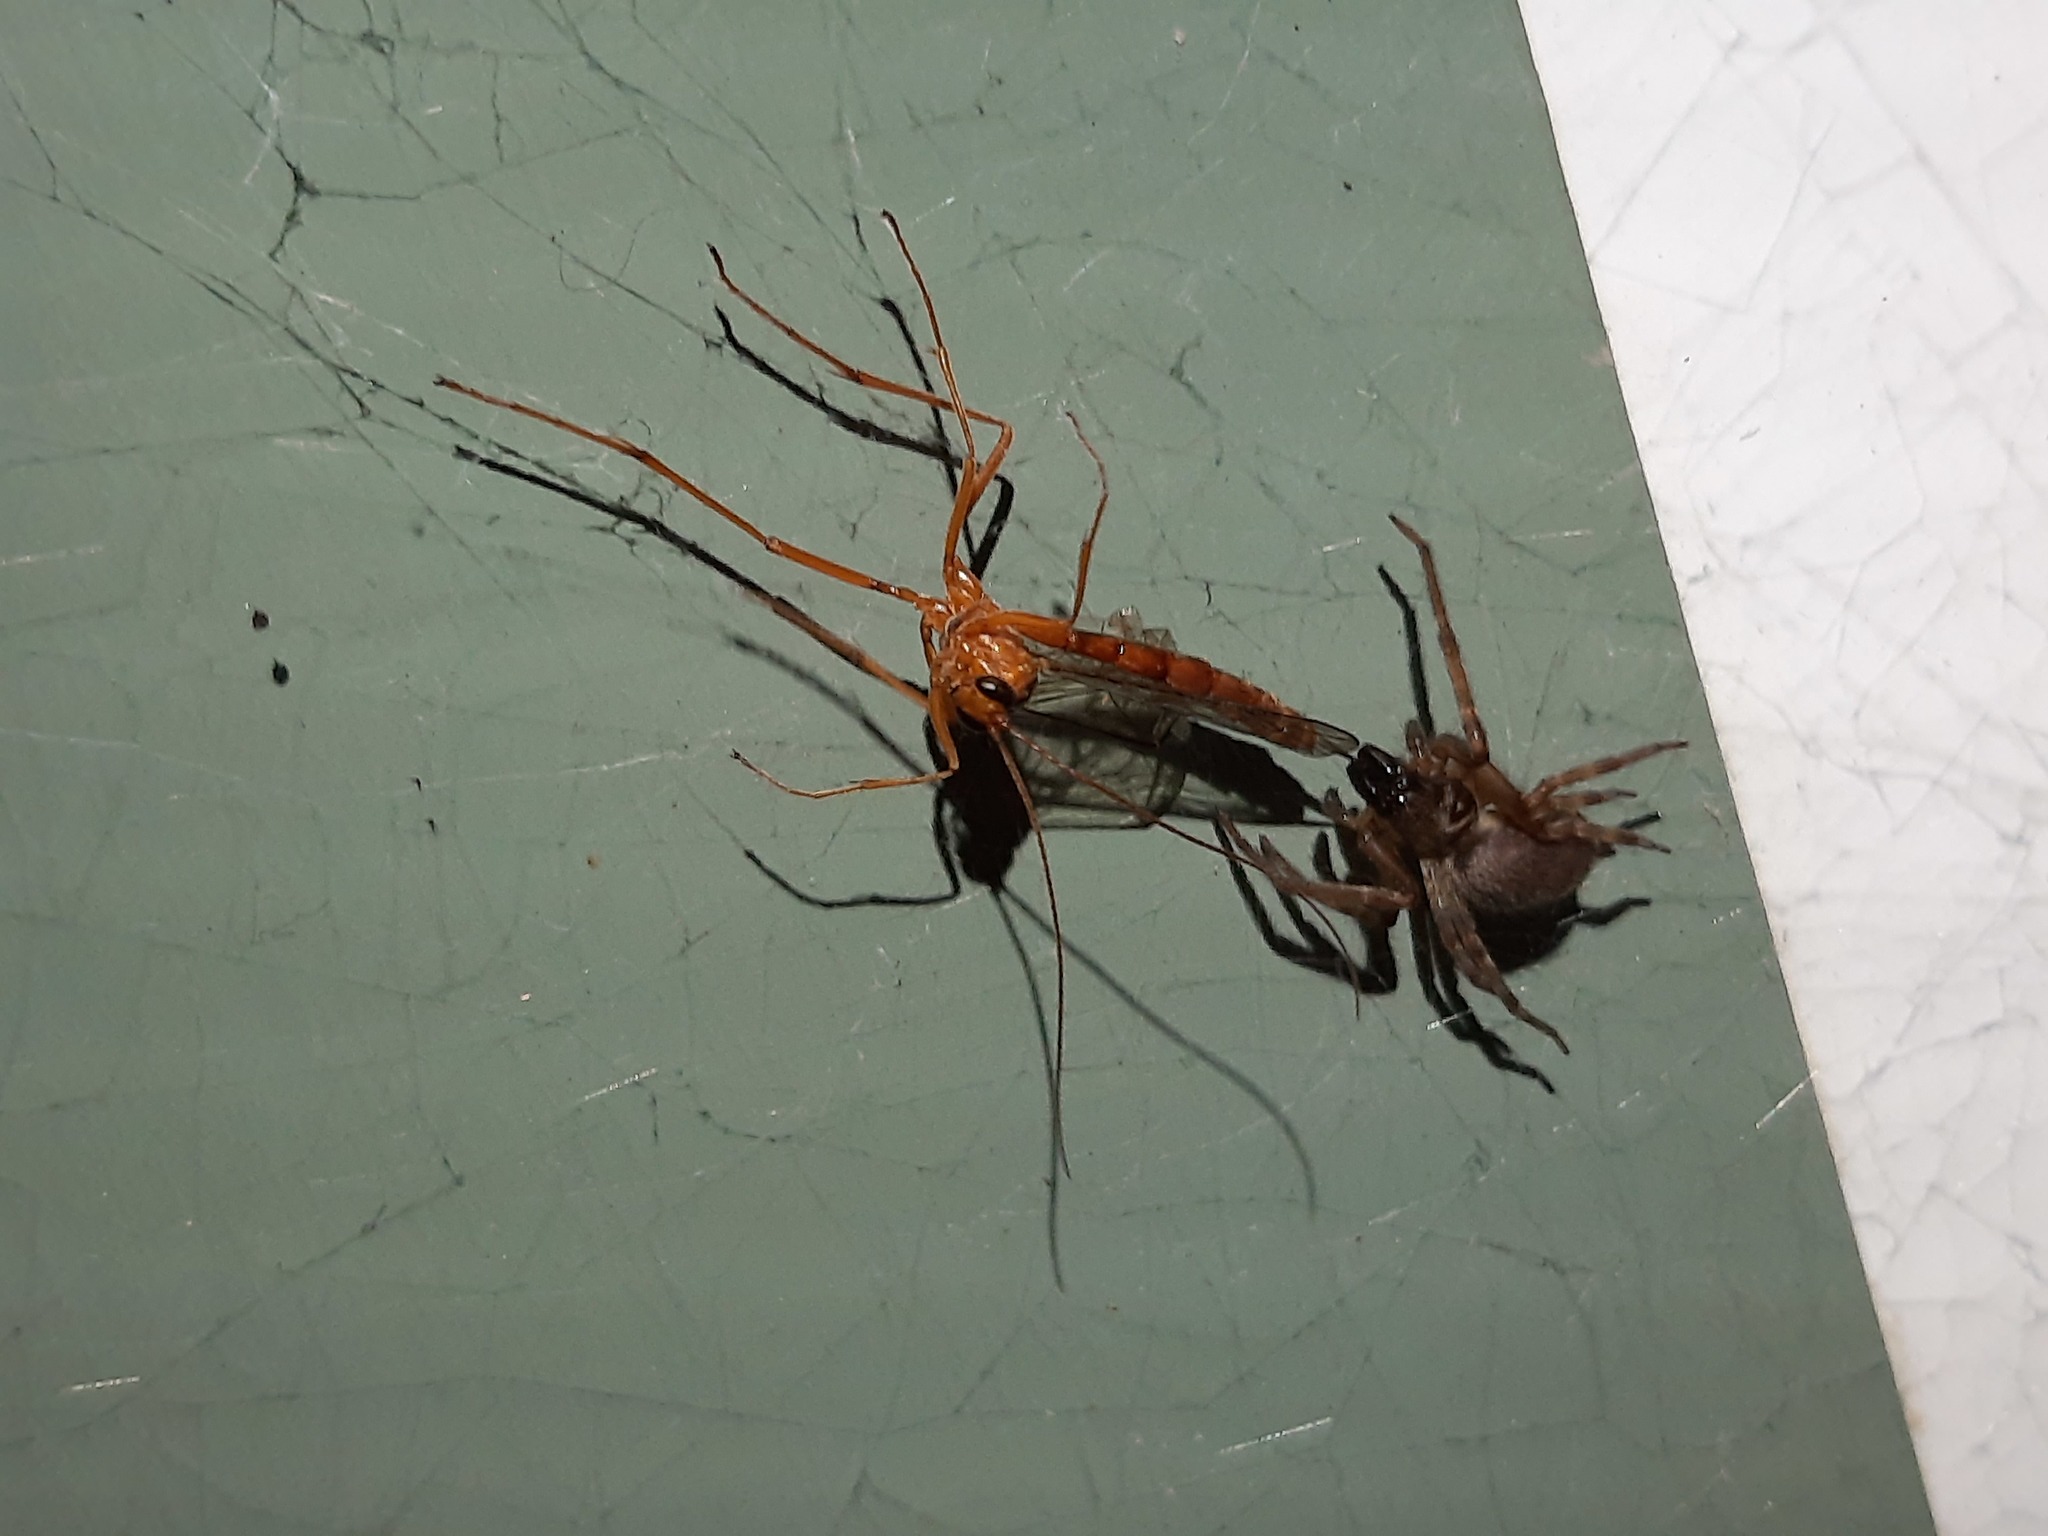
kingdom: Animalia
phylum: Arthropoda
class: Insecta
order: Hymenoptera
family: Ichneumonidae
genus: Netelia
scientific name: Netelia ephippiata
